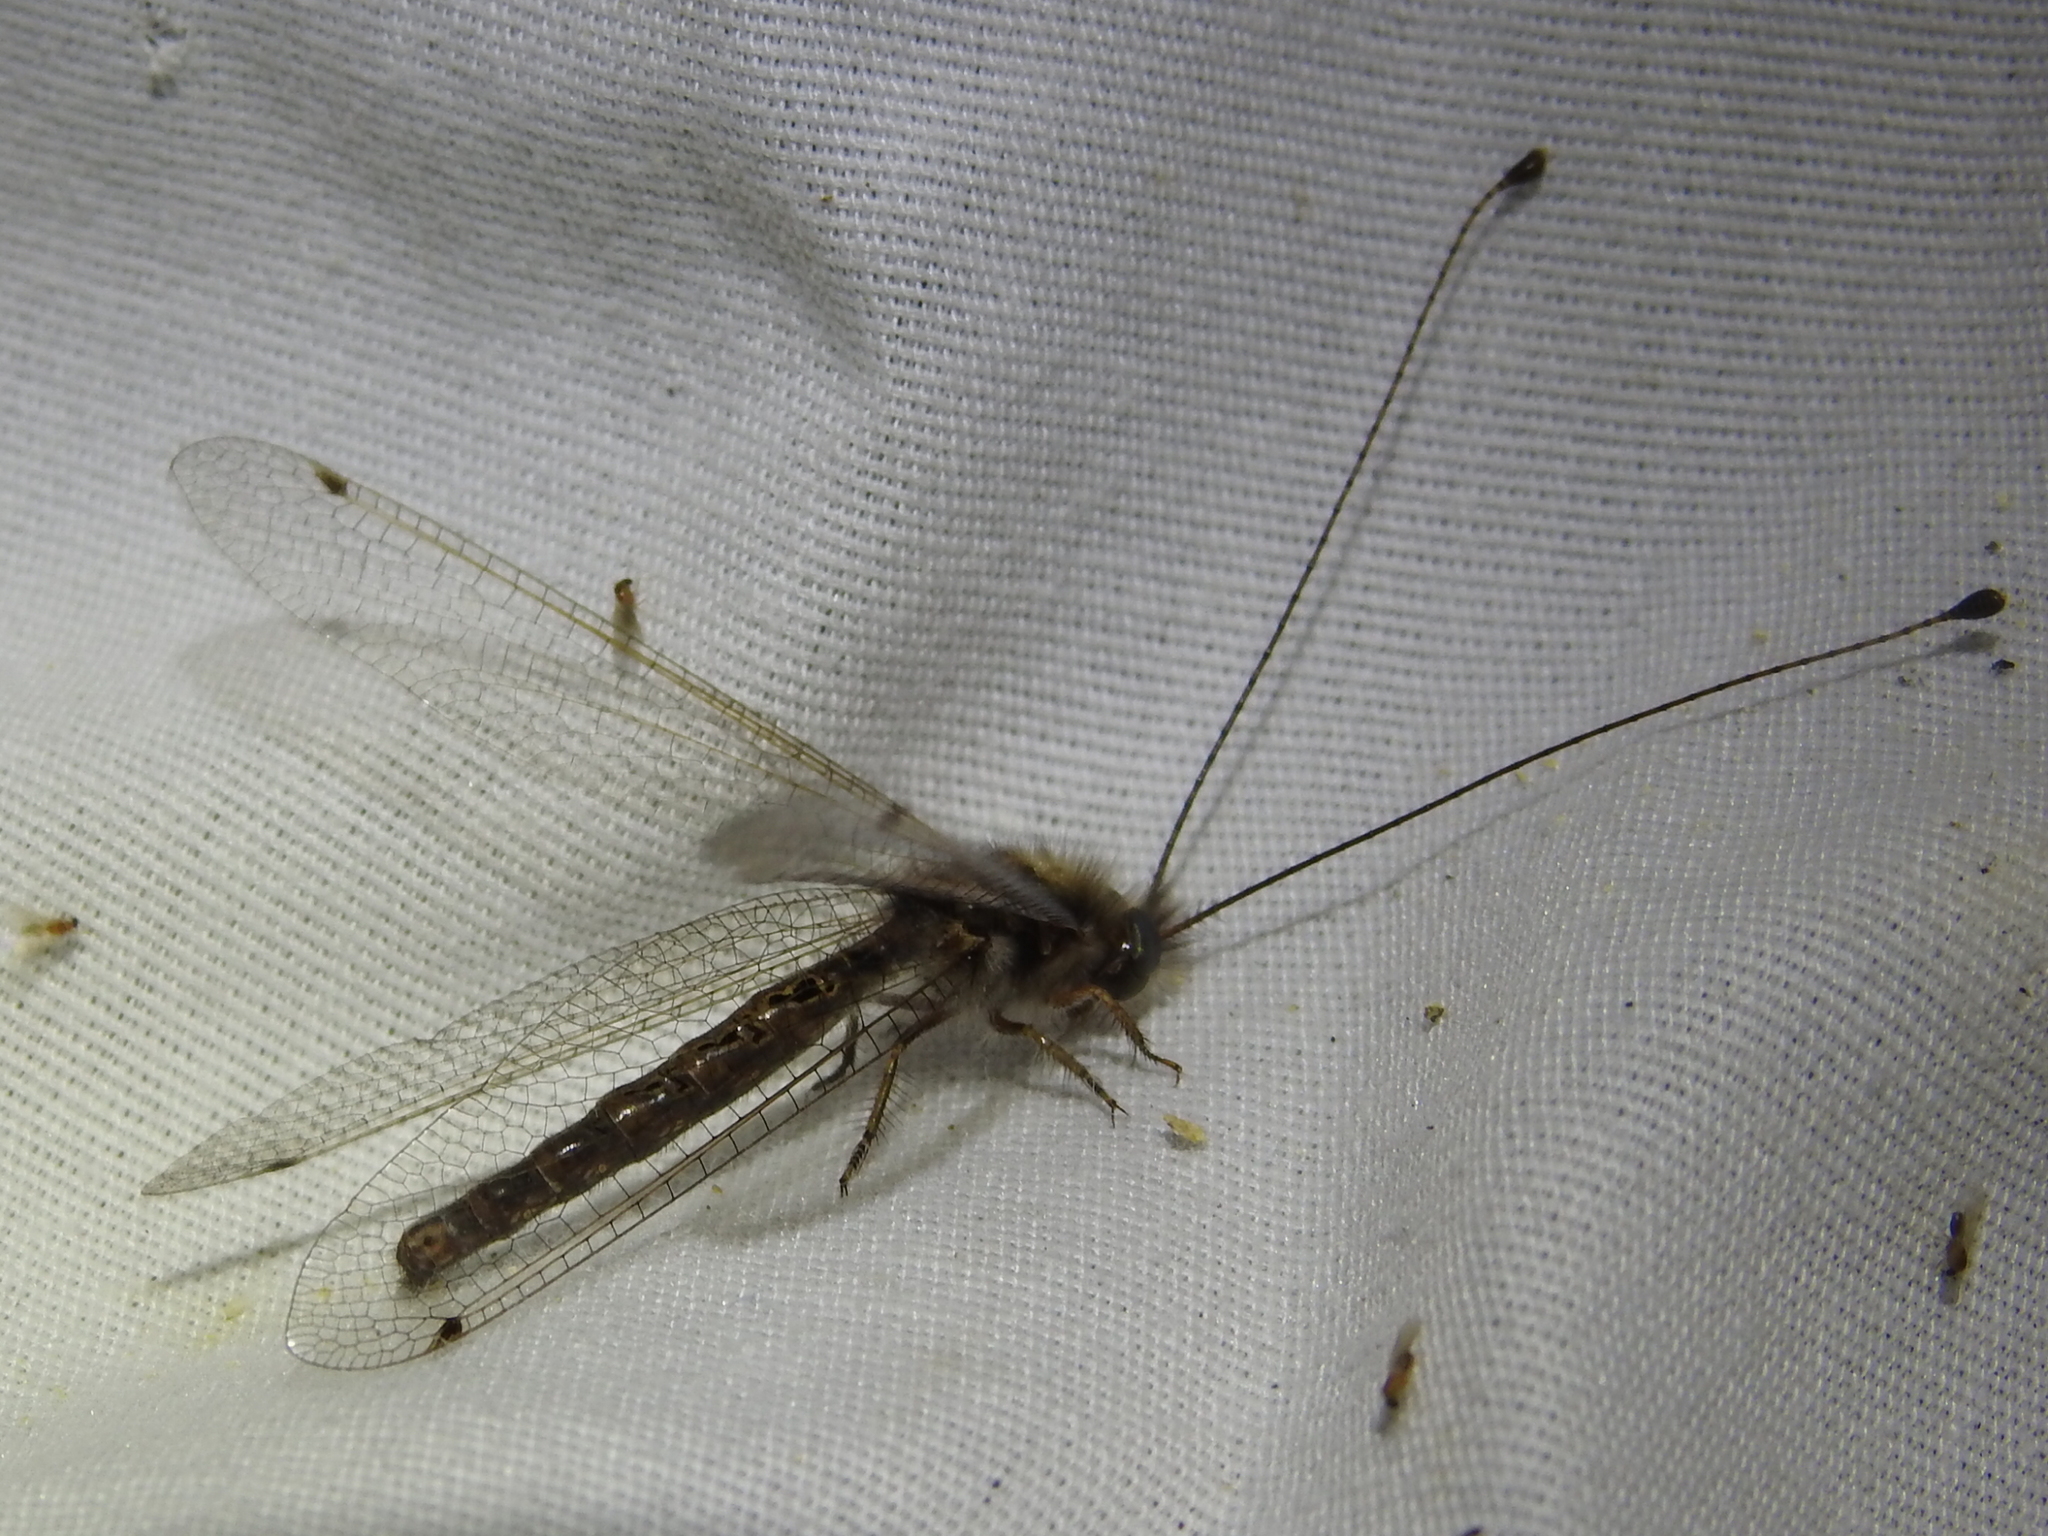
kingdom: Animalia
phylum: Arthropoda
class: Insecta
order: Neuroptera
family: Ascalaphidae
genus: Ululodes
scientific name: Ululodes macleayanus
